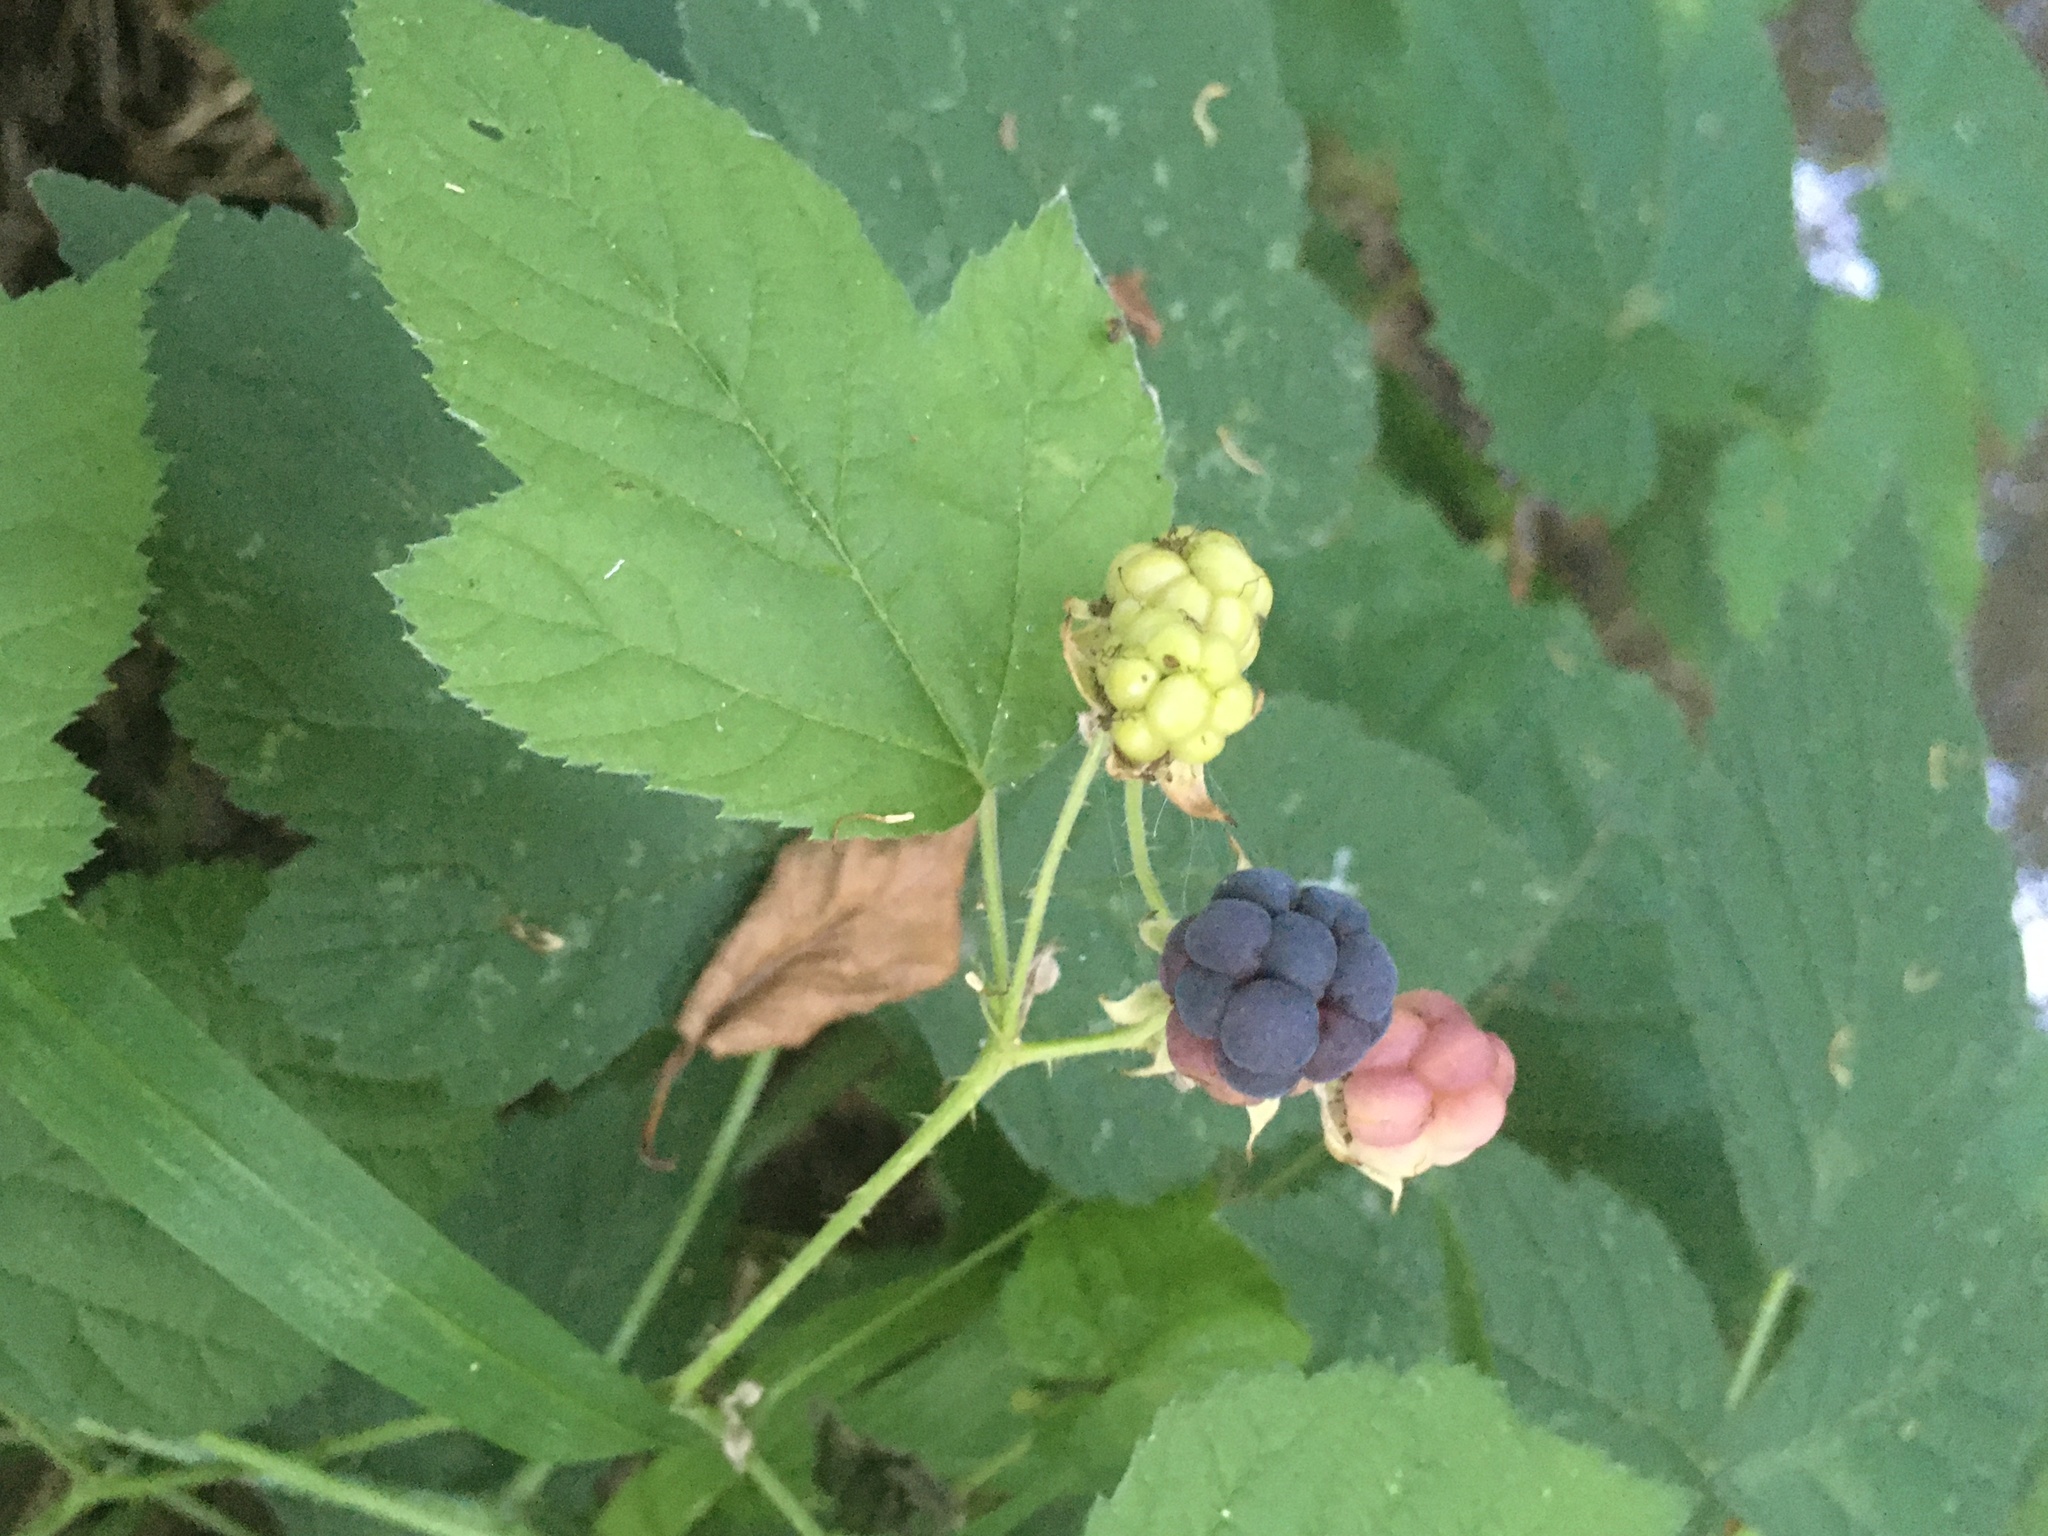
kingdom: Plantae
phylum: Tracheophyta
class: Magnoliopsida
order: Rosales
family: Rosaceae
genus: Rubus
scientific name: Rubus caesius
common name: Dewberry
